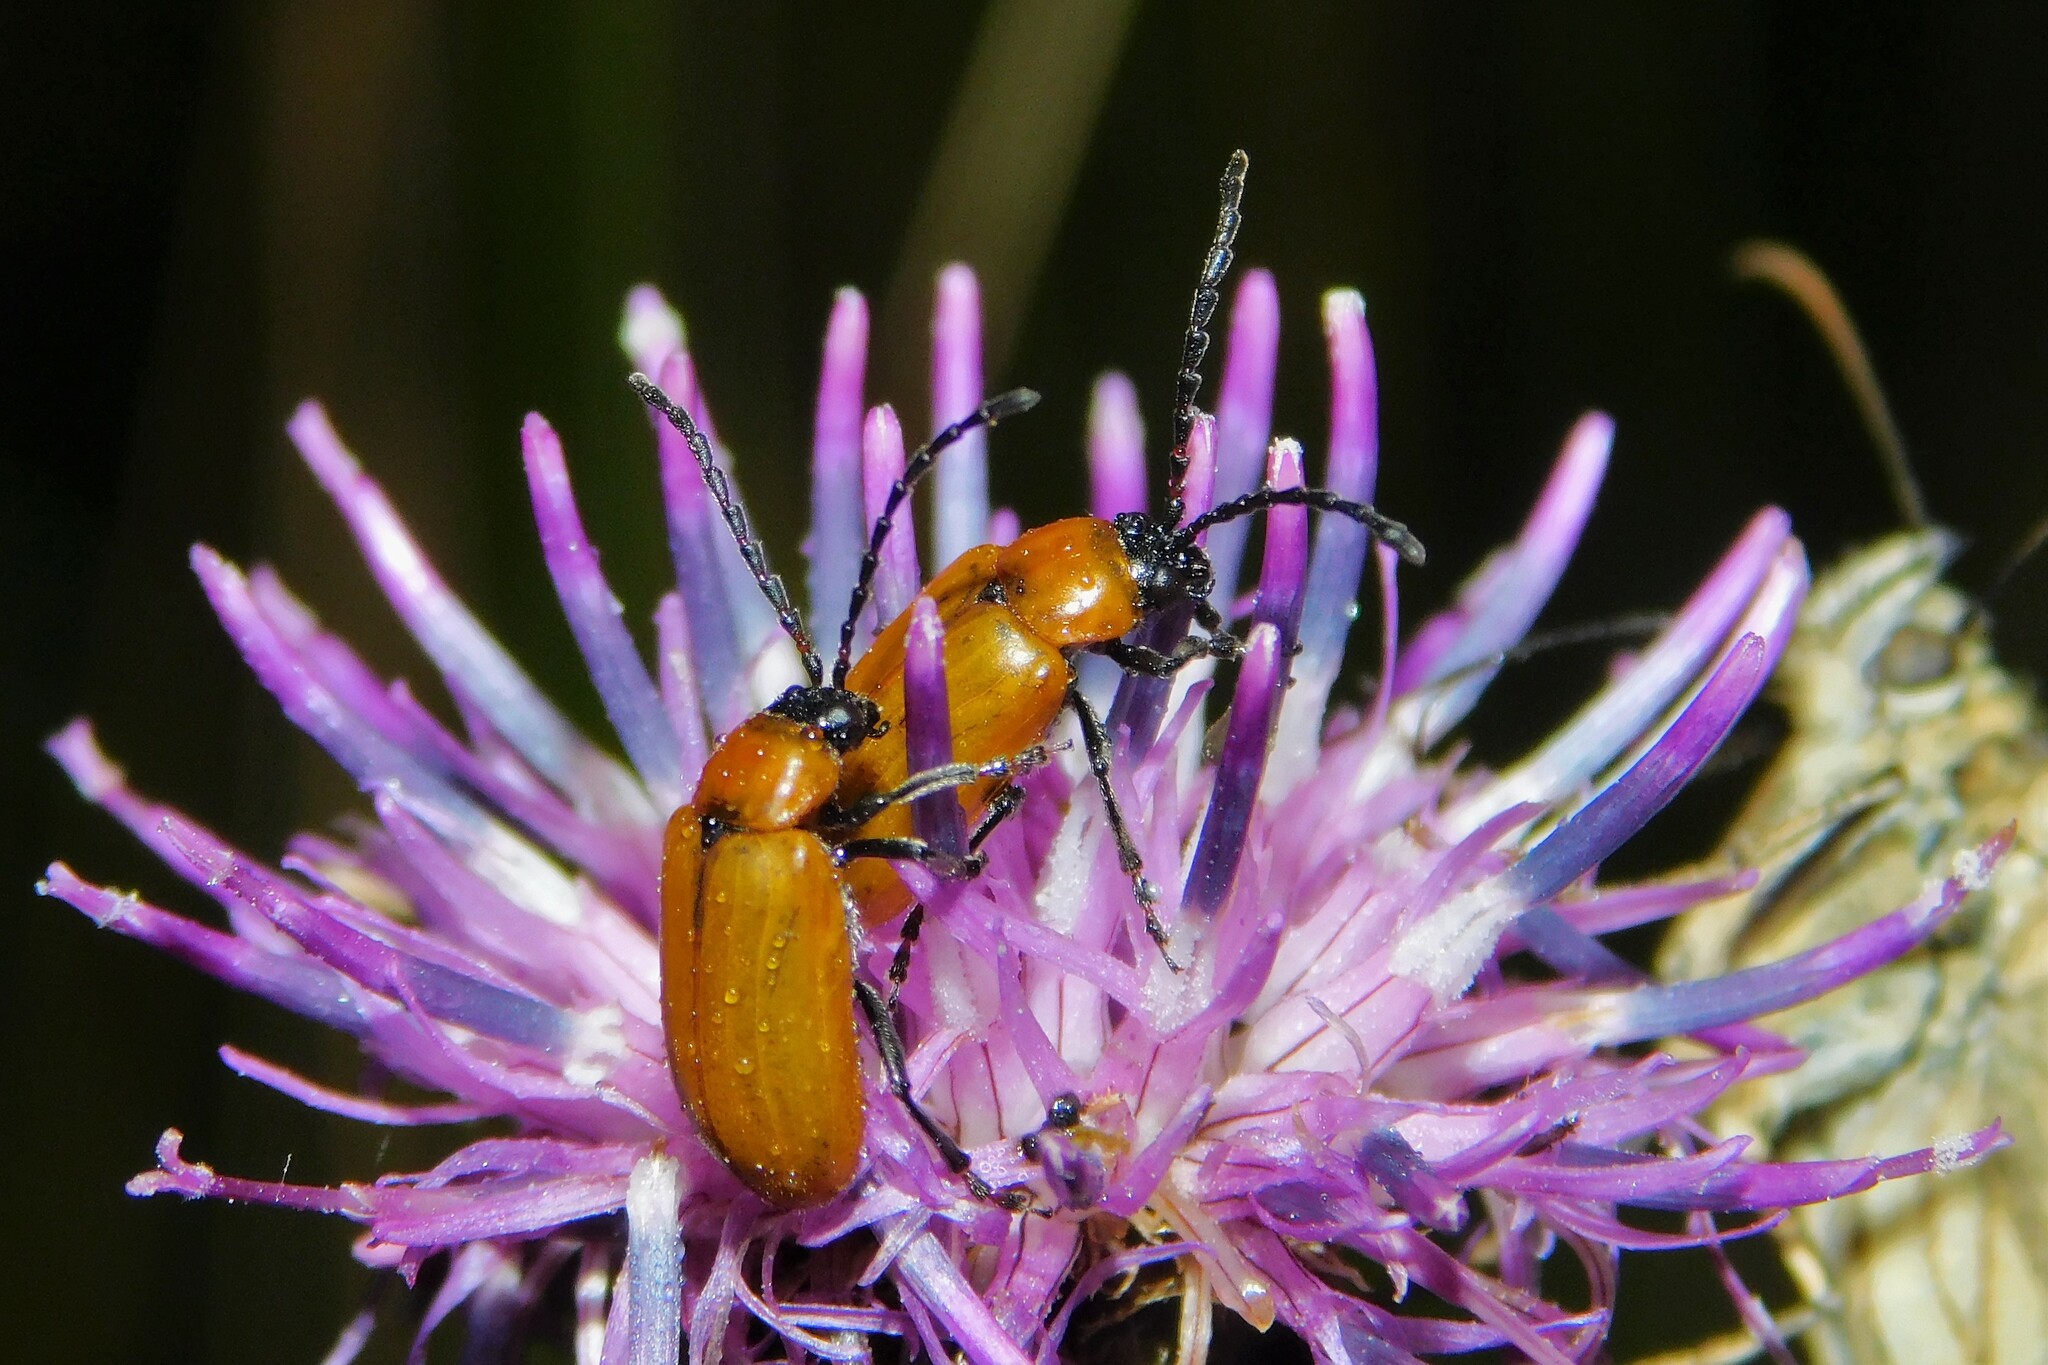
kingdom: Animalia
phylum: Arthropoda
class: Insecta
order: Coleoptera
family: Chrysomelidae
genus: Exosoma
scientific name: Exosoma lusitanicum
